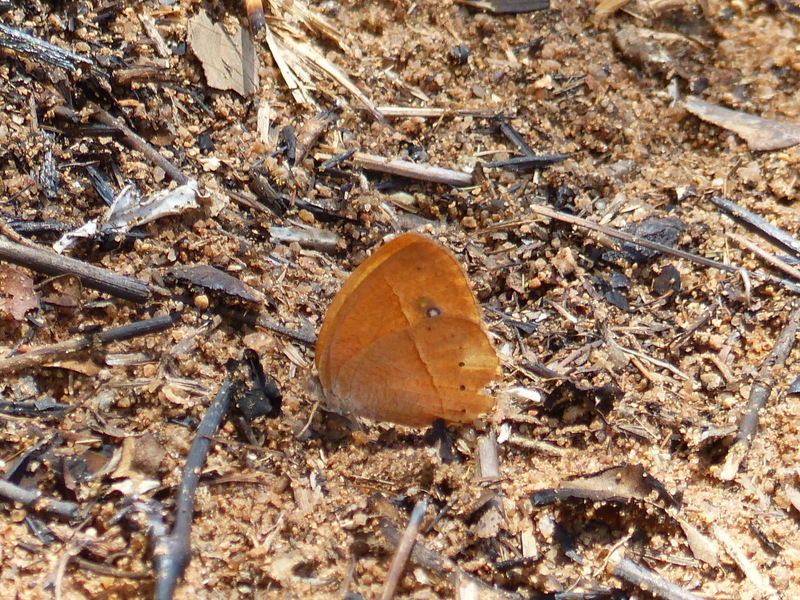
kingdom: Animalia
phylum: Arthropoda
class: Insecta
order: Lepidoptera
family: Nymphalidae
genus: Brakefieldia
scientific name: Brakefieldia simonsii
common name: Pale patroller
